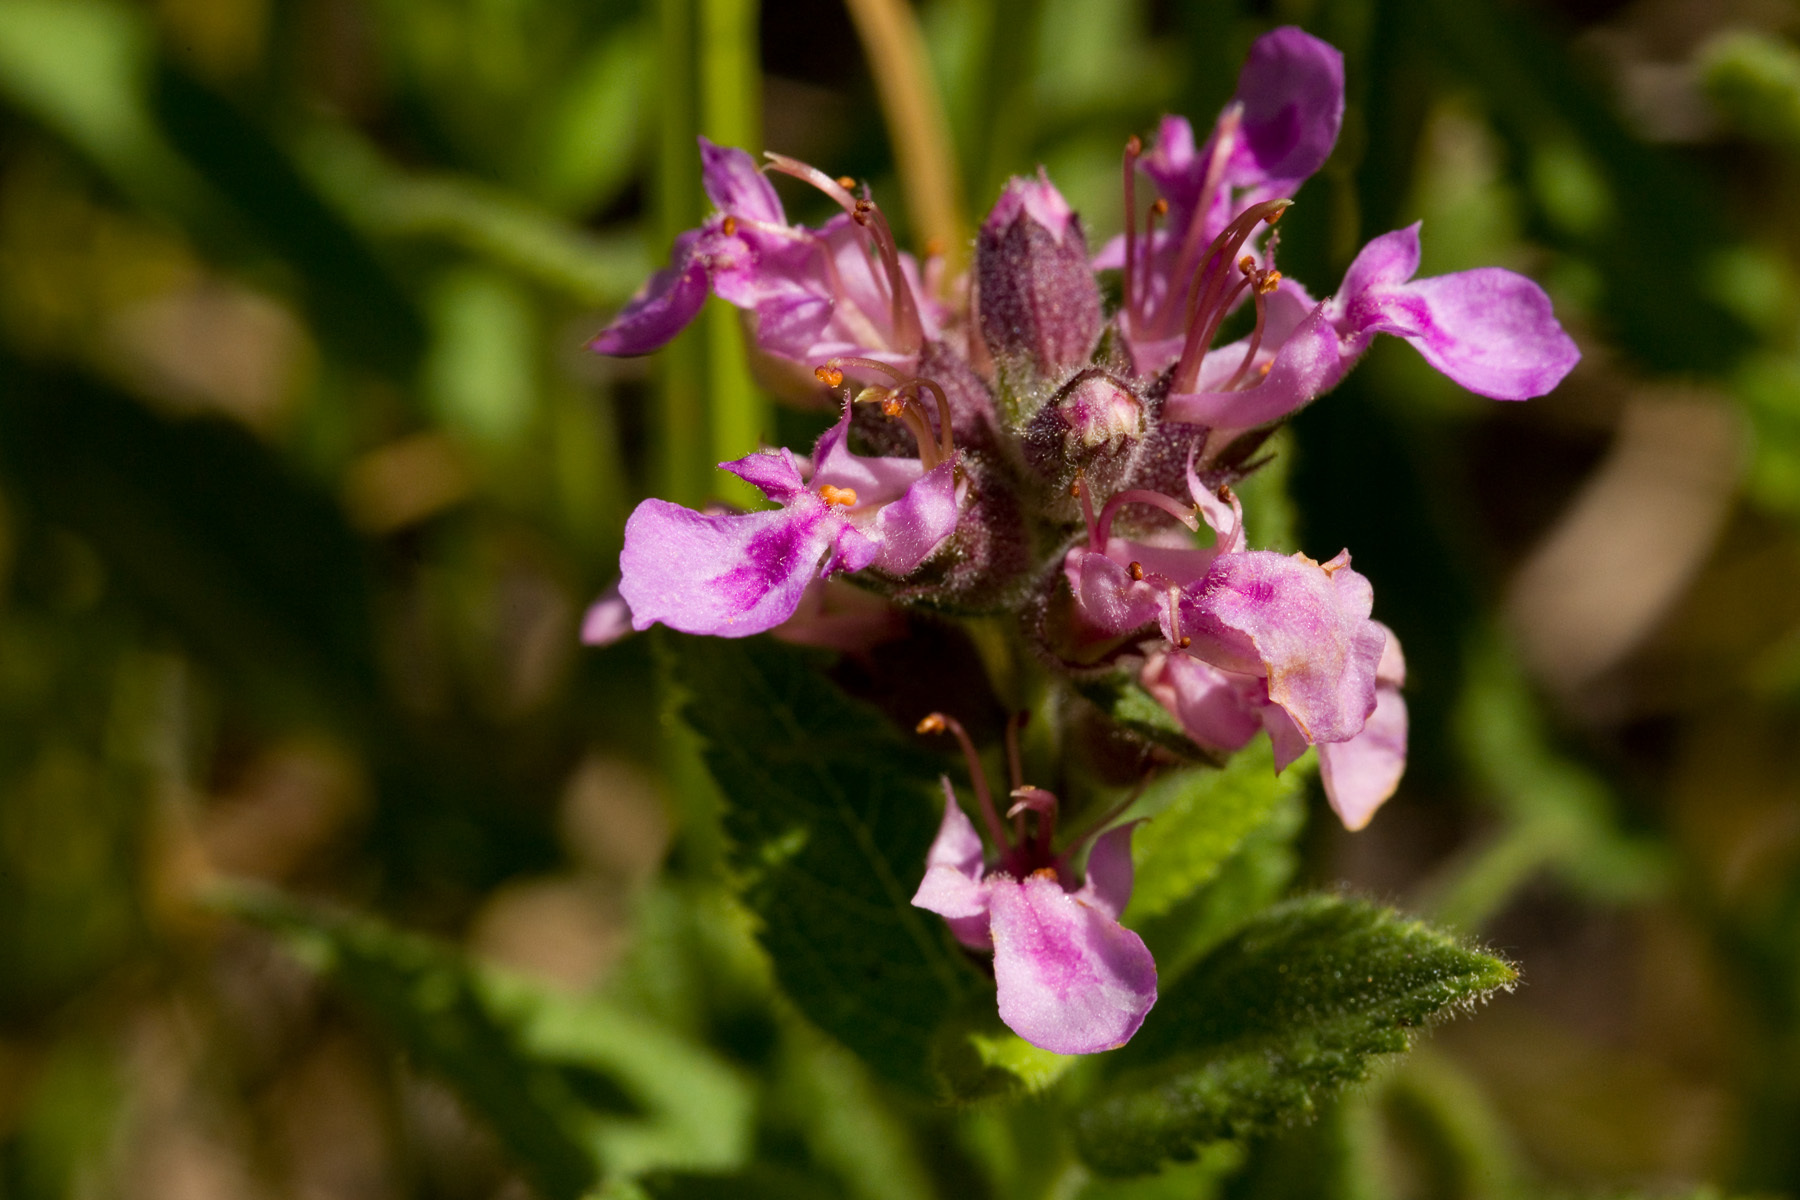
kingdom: Plantae
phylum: Tracheophyta
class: Magnoliopsida
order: Lamiales
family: Lamiaceae
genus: Teucrium
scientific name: Teucrium canadense
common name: American germander
